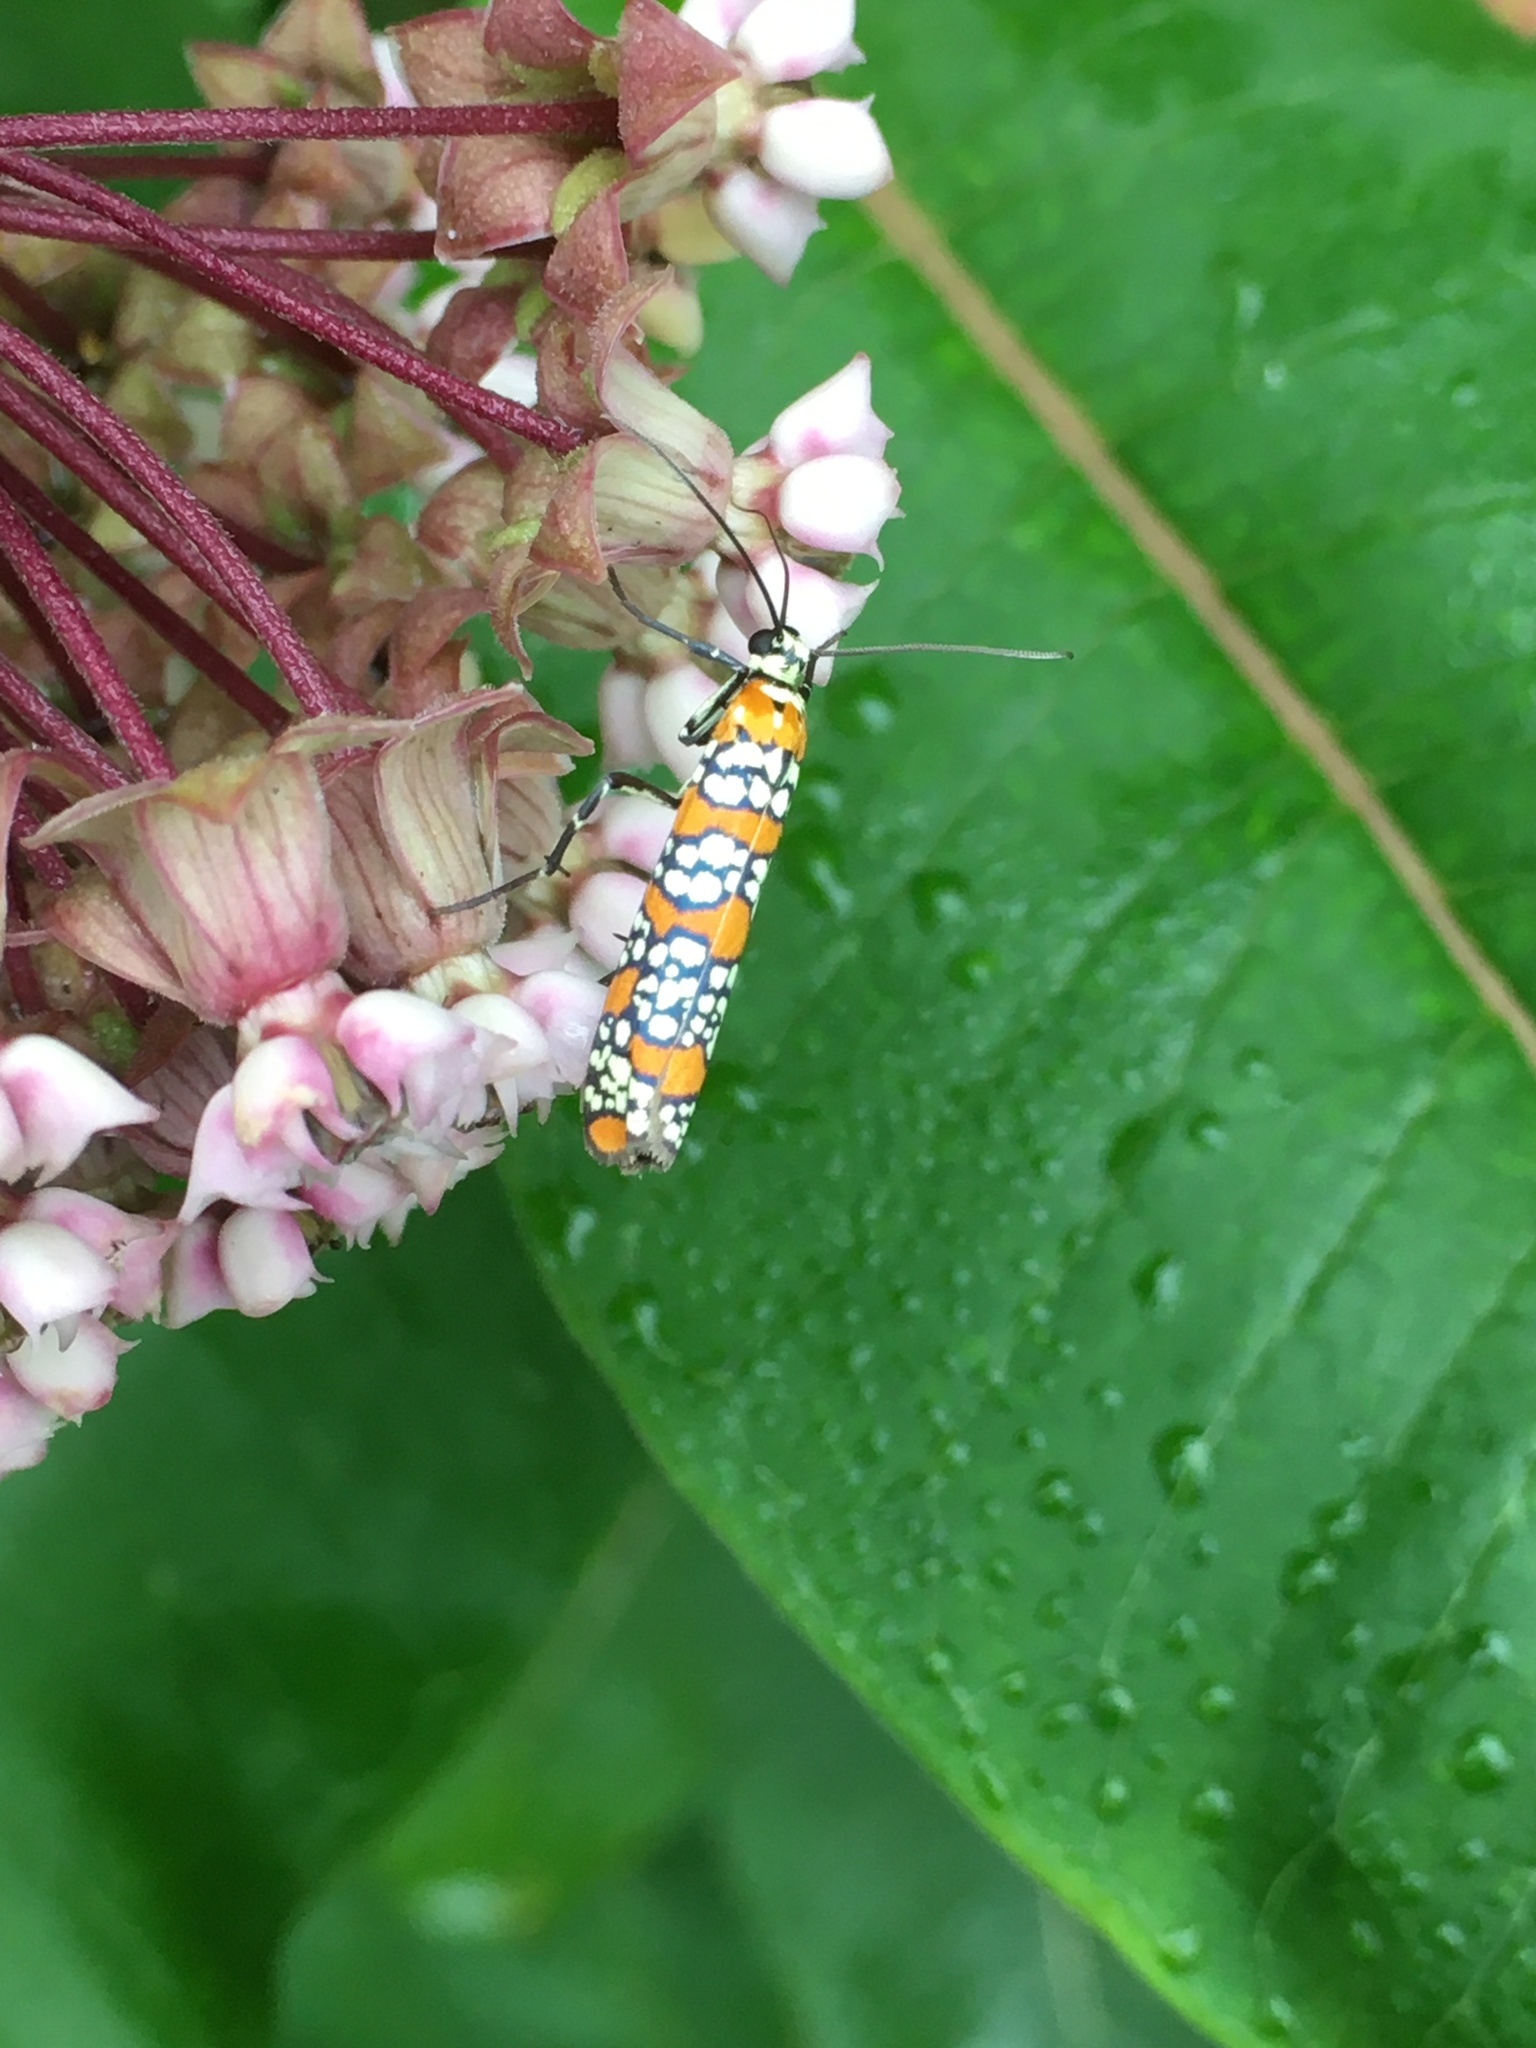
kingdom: Animalia
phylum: Arthropoda
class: Insecta
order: Lepidoptera
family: Attevidae
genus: Atteva
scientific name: Atteva punctella
